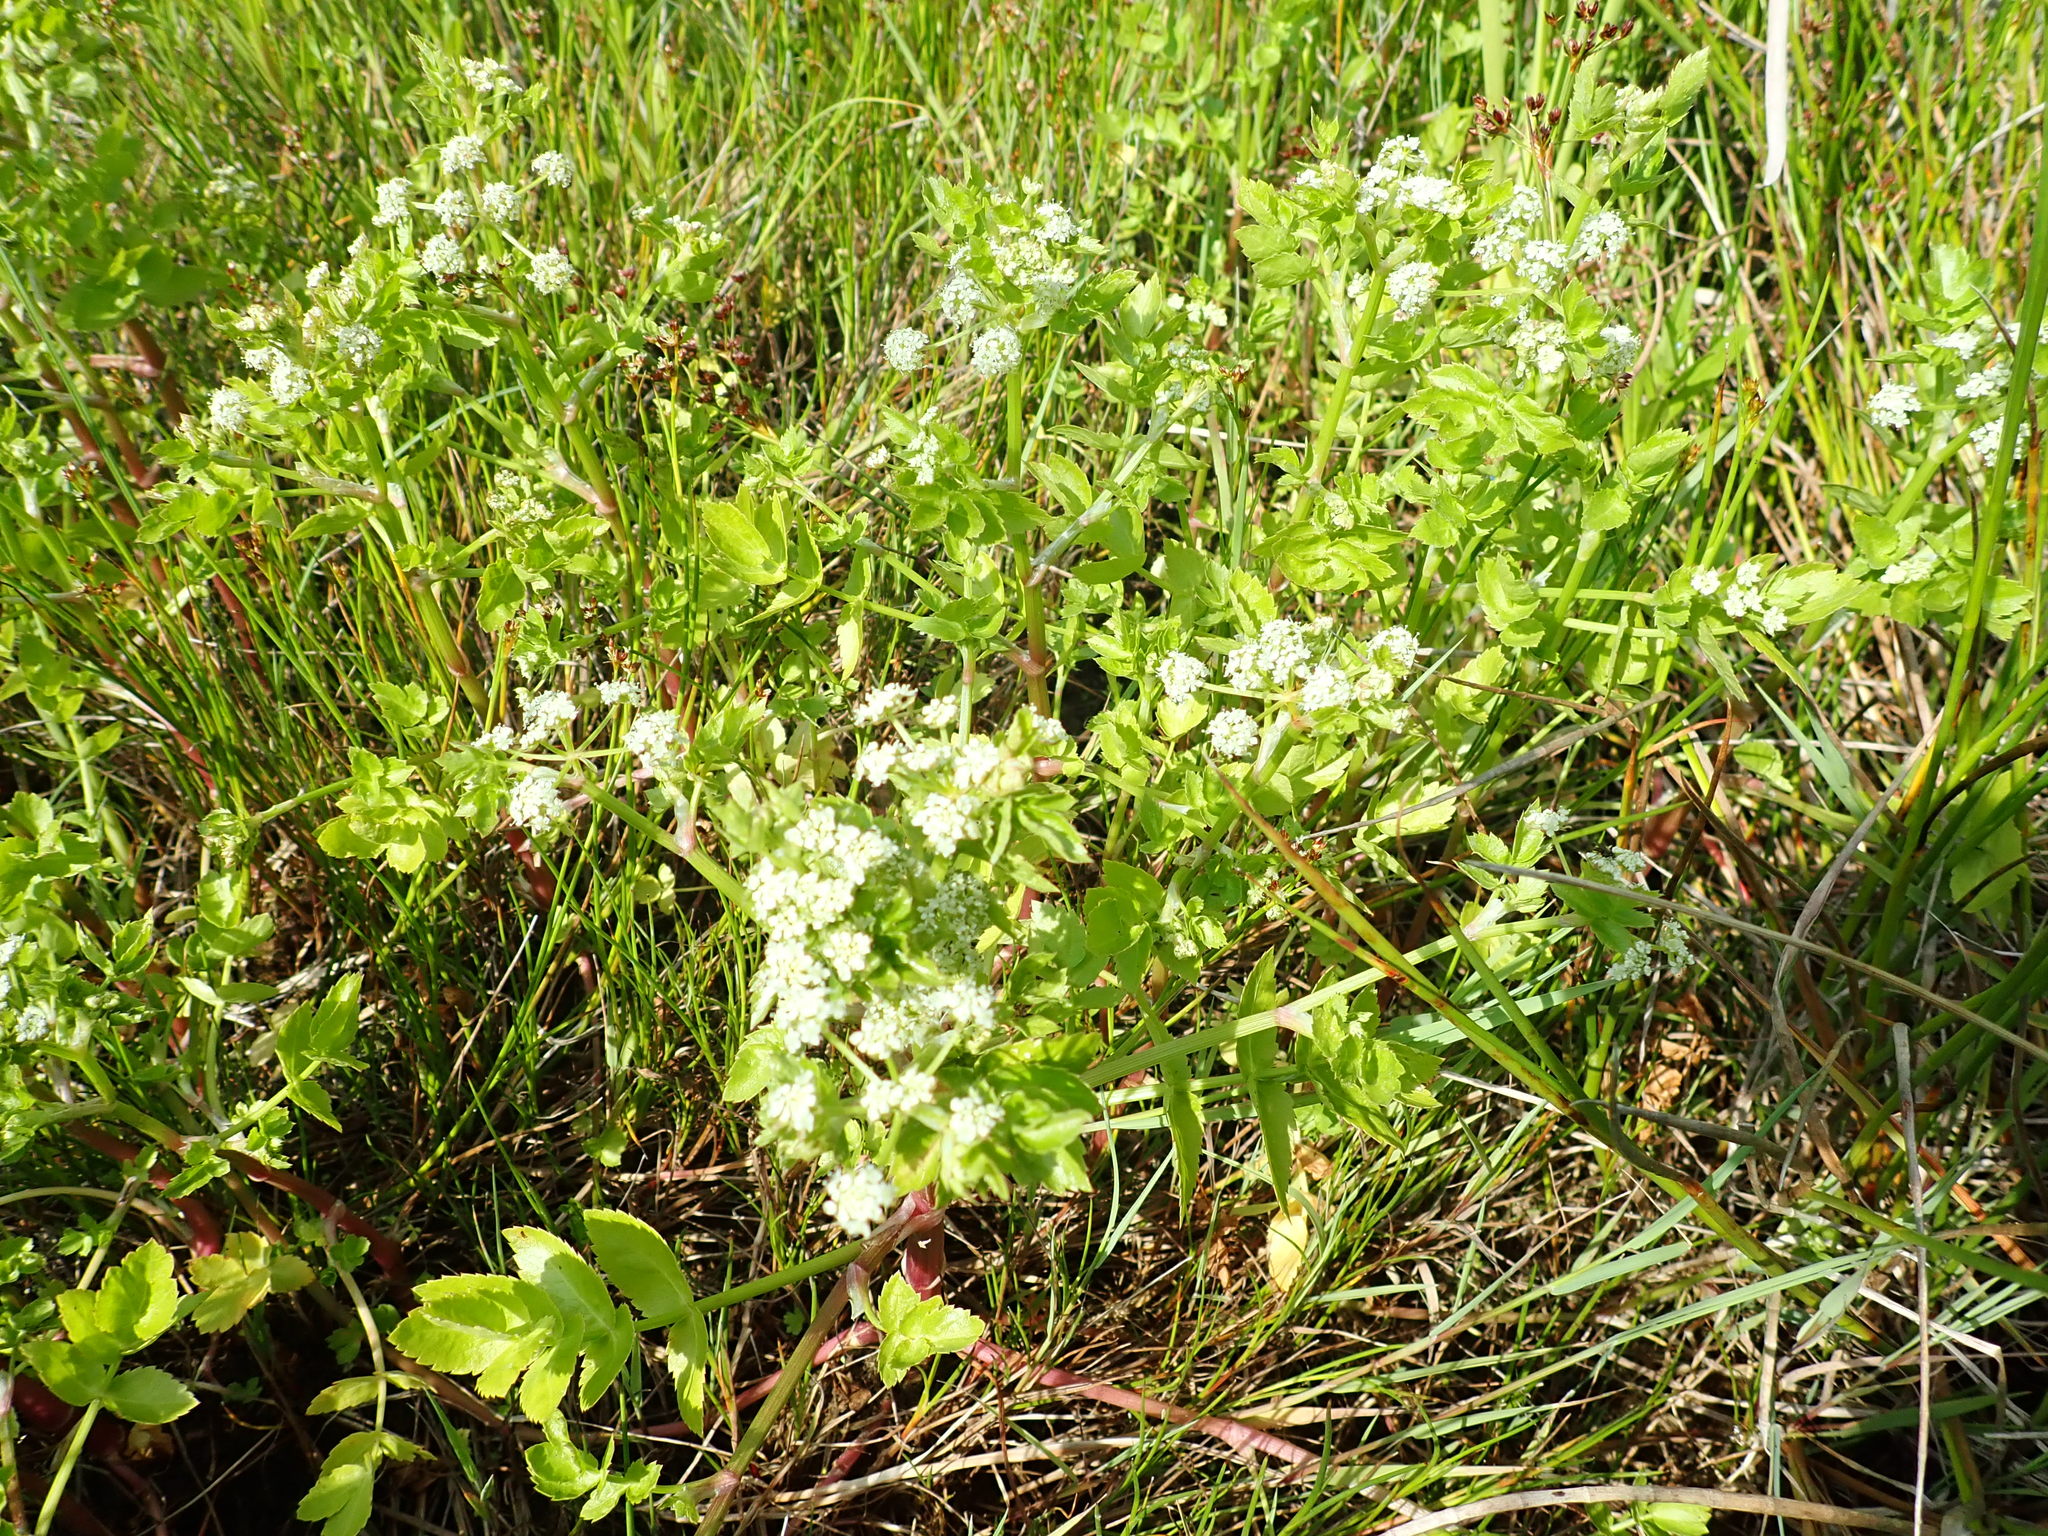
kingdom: Plantae
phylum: Tracheophyta
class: Magnoliopsida
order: Apiales
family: Apiaceae
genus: Apium
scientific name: Apium graveolens
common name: Wild celery
